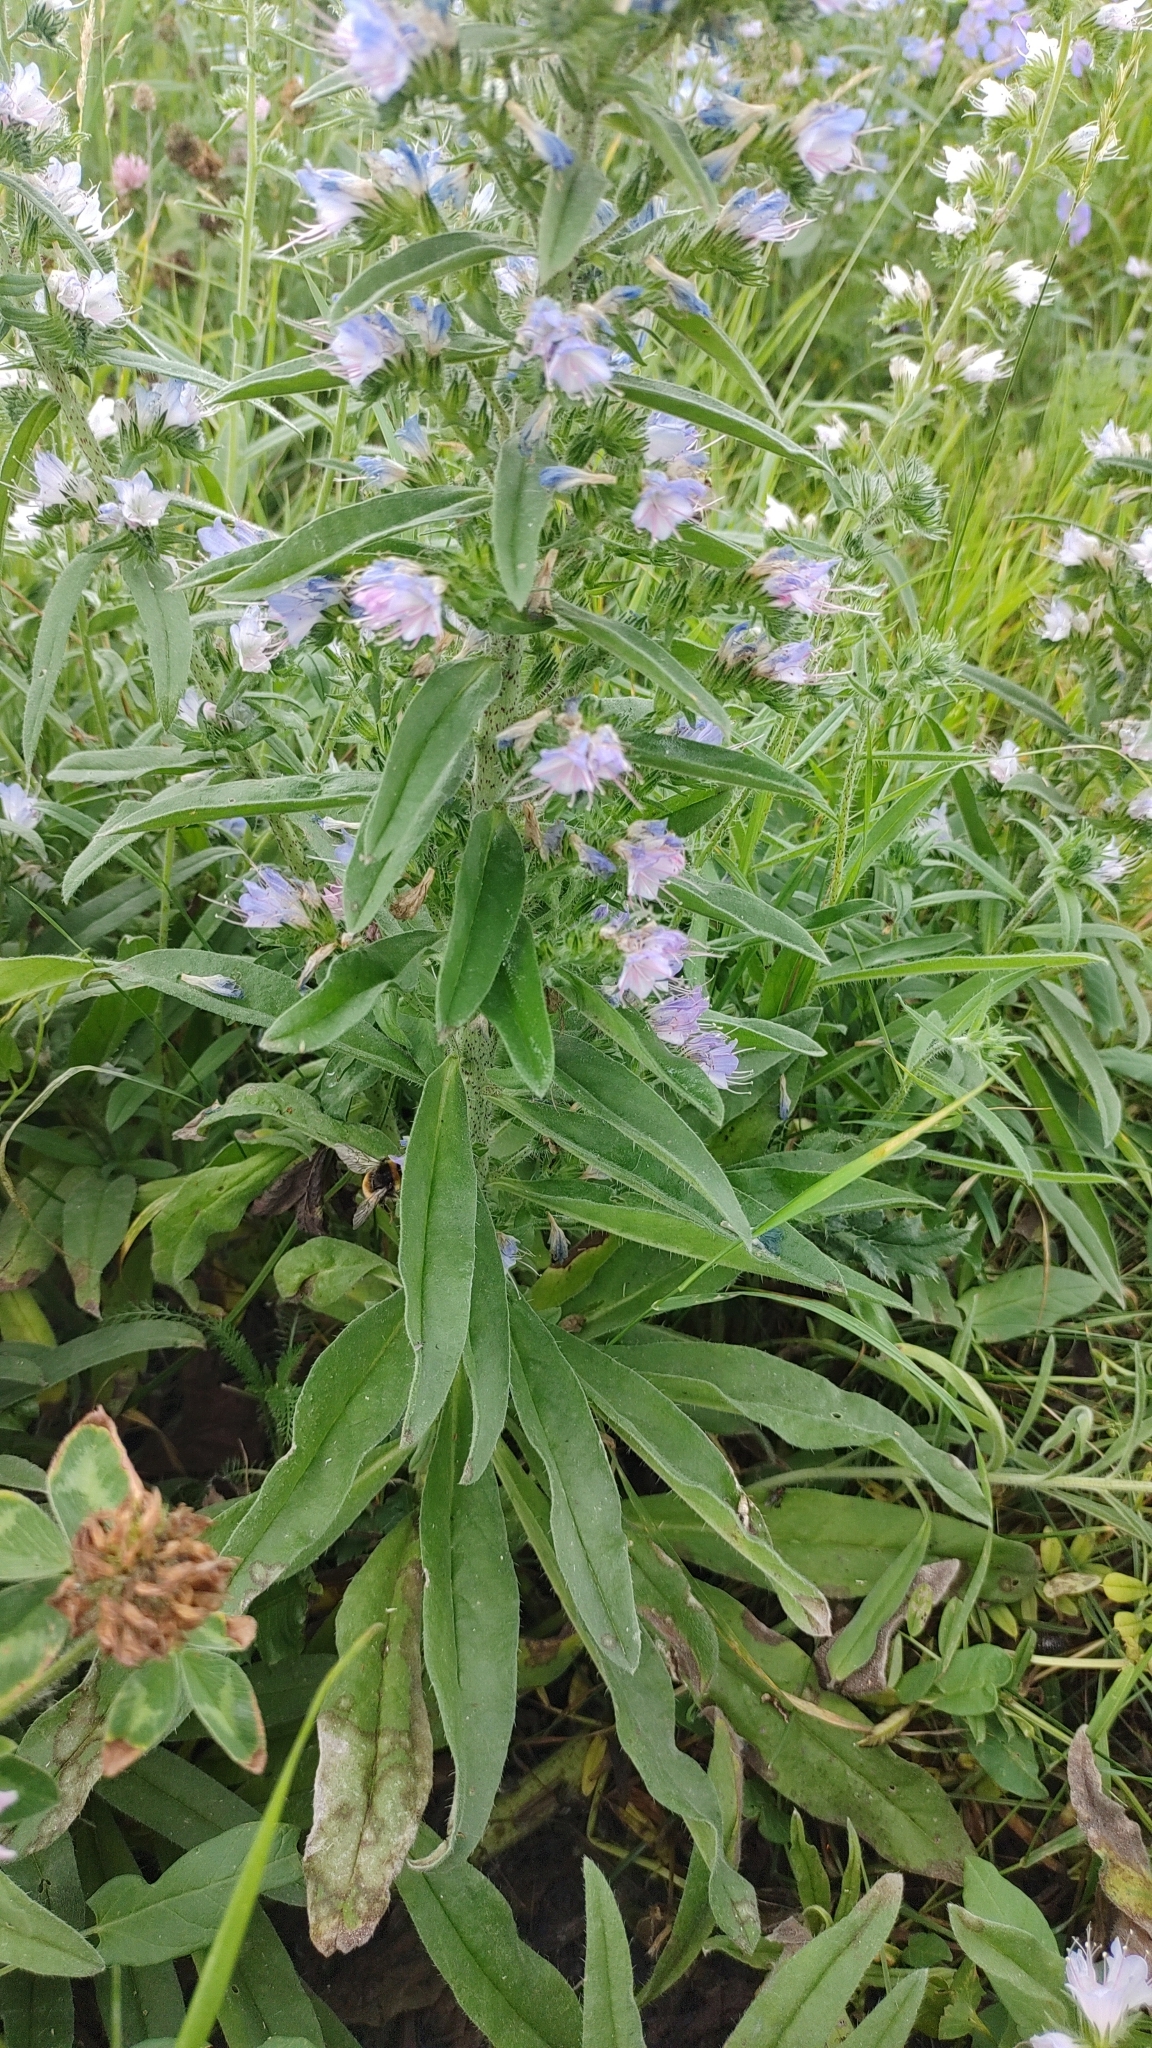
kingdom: Plantae
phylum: Tracheophyta
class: Magnoliopsida
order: Boraginales
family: Boraginaceae
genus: Echium
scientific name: Echium vulgare
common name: Common viper's bugloss
